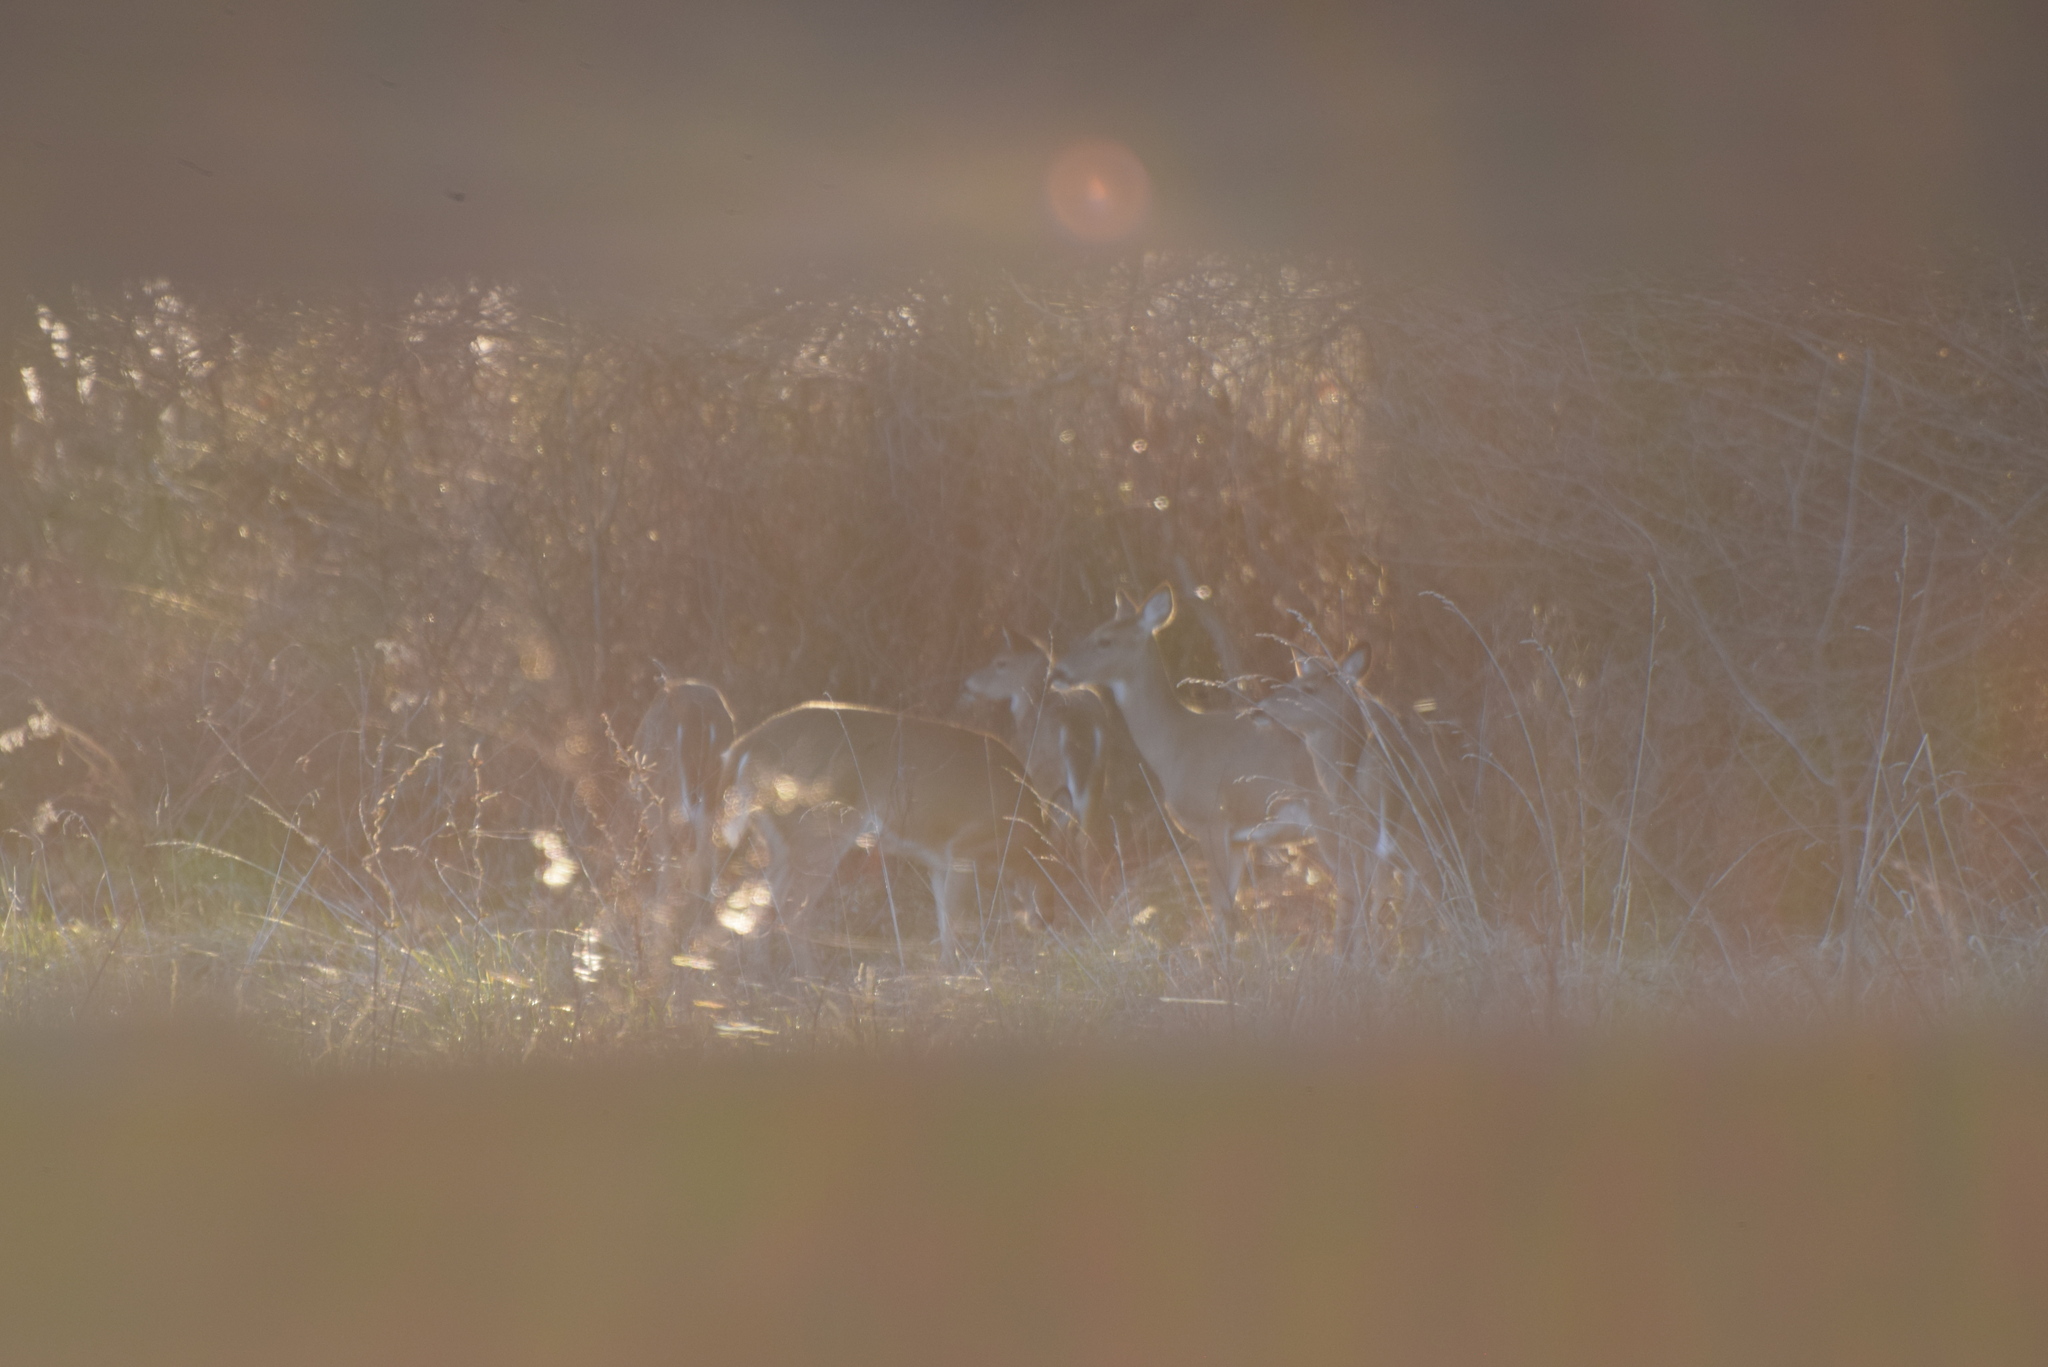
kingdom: Animalia
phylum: Chordata
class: Mammalia
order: Artiodactyla
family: Cervidae
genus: Odocoileus
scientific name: Odocoileus virginianus
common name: White-tailed deer
